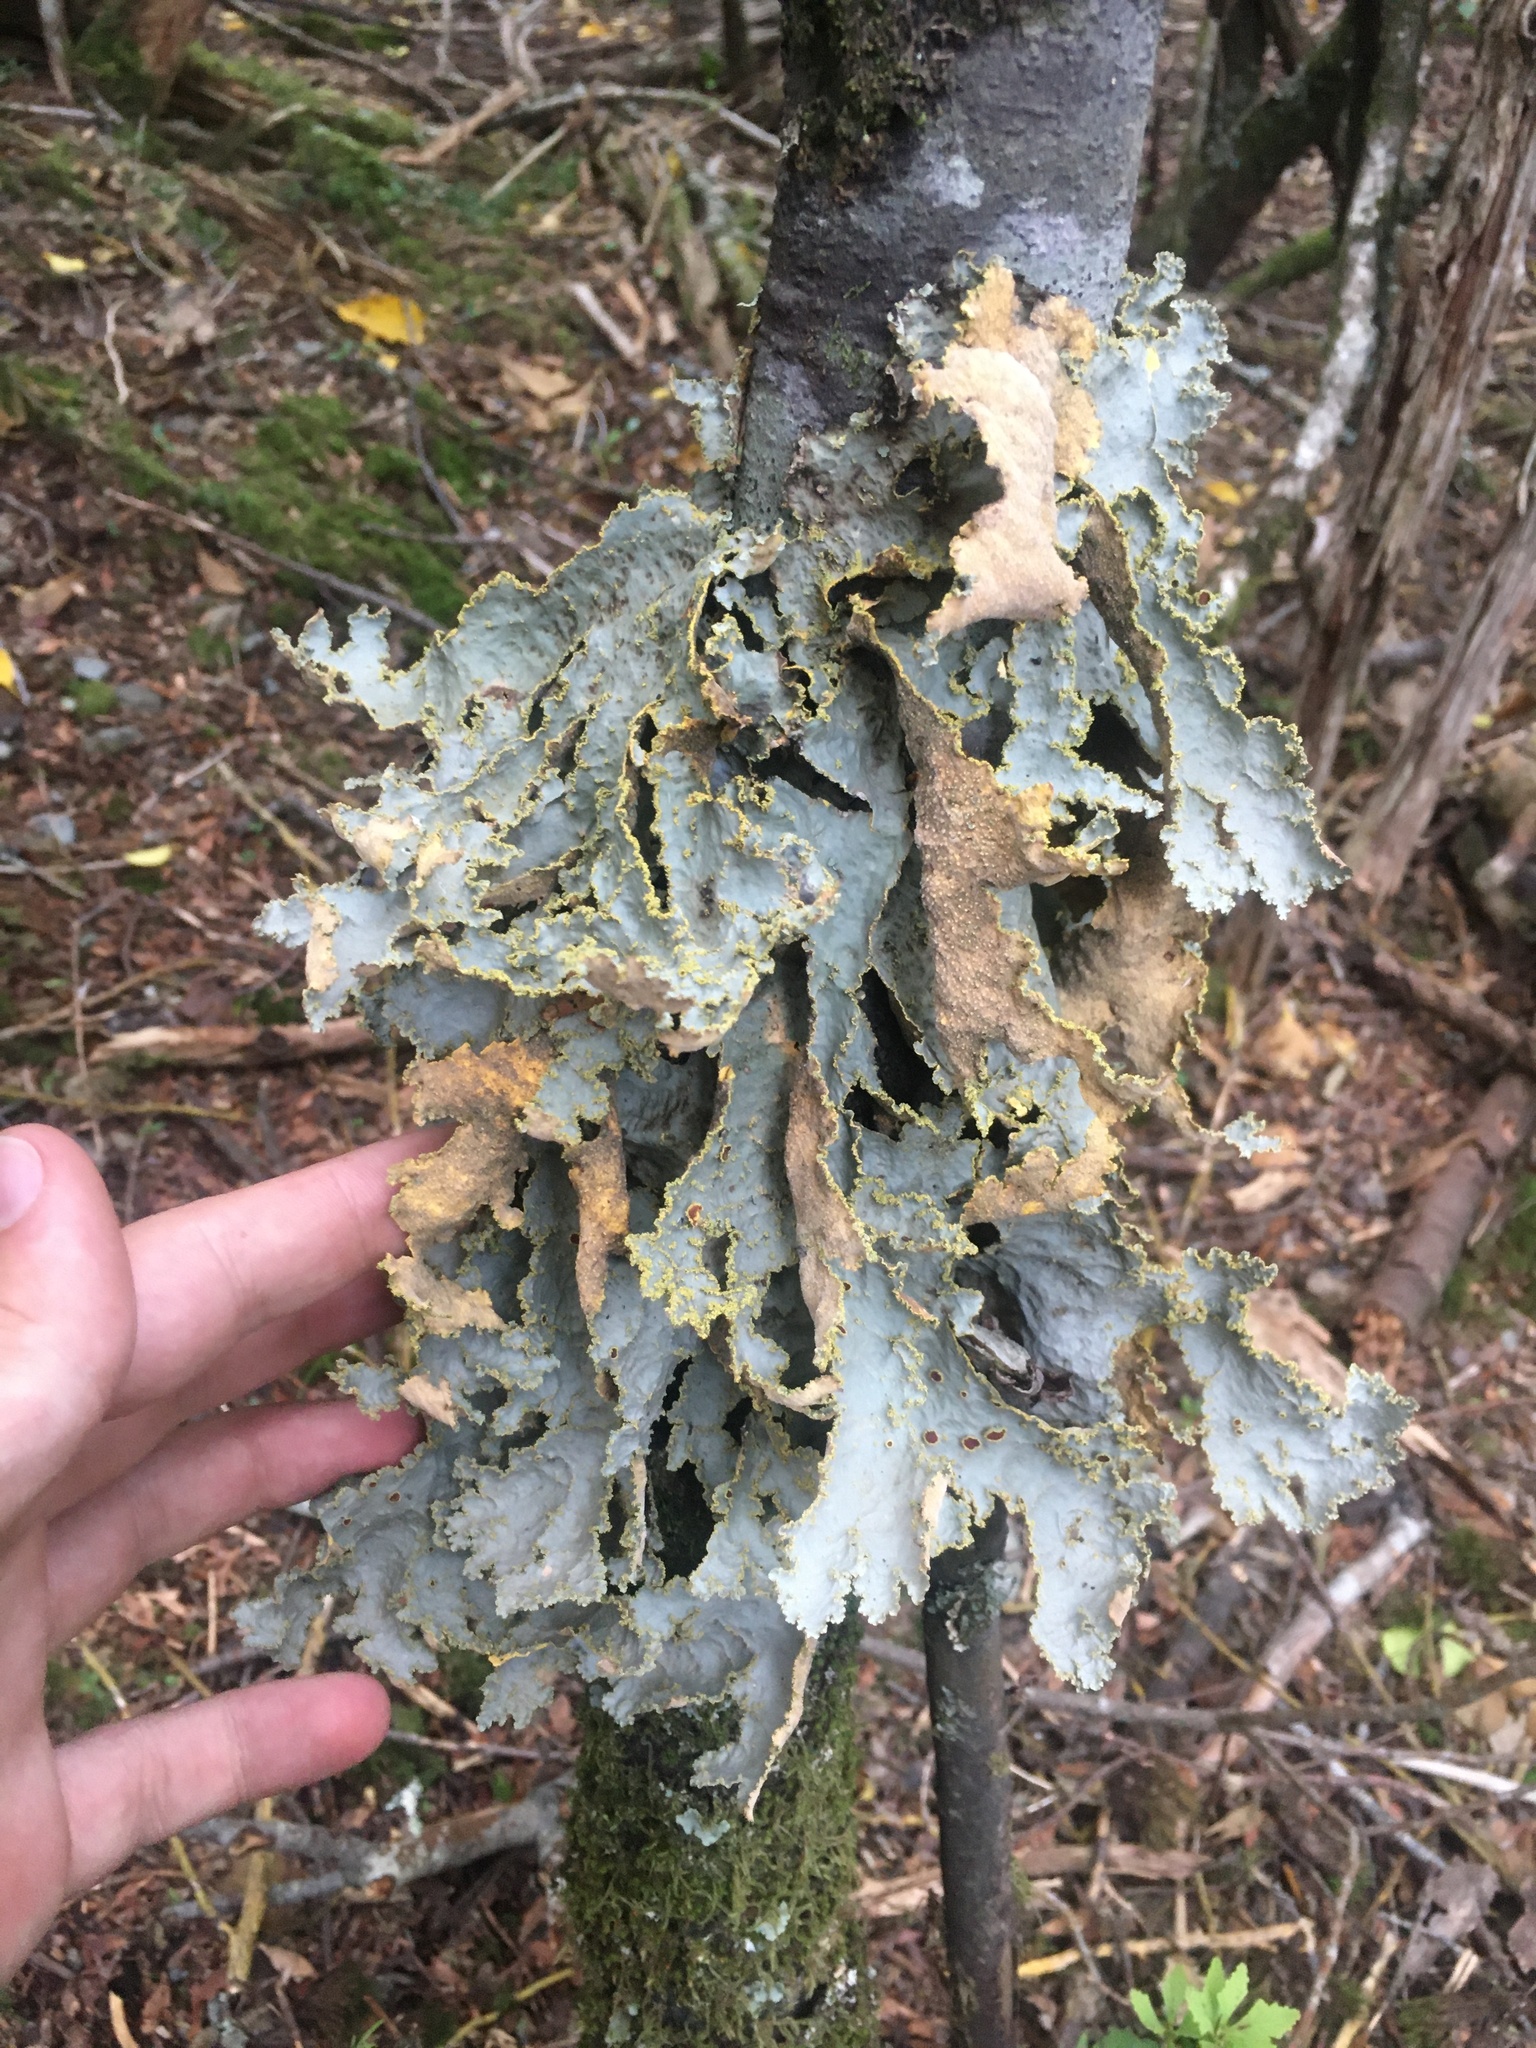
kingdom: Fungi
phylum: Ascomycota
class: Lecanoromycetes
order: Peltigerales
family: Lobariaceae
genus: Yarrumia
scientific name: Yarrumia colensoi
